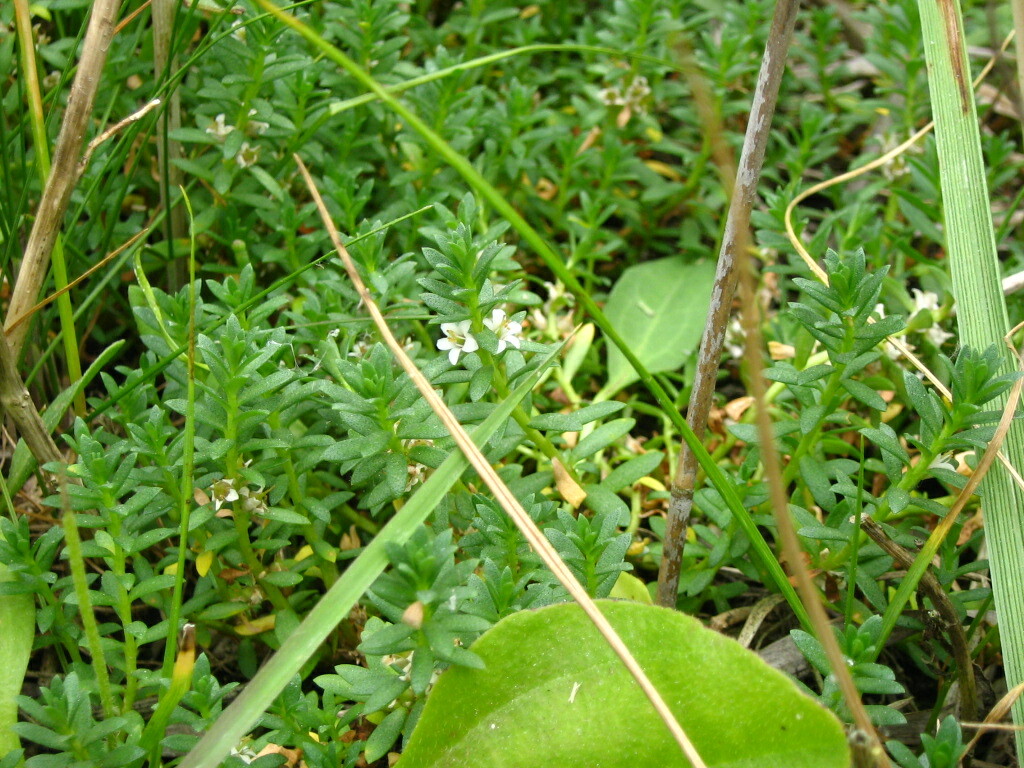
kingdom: Plantae
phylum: Tracheophyta
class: Magnoliopsida
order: Ericales
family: Primulaceae
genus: Lysimachia
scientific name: Lysimachia maritima
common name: Sea milkwort
